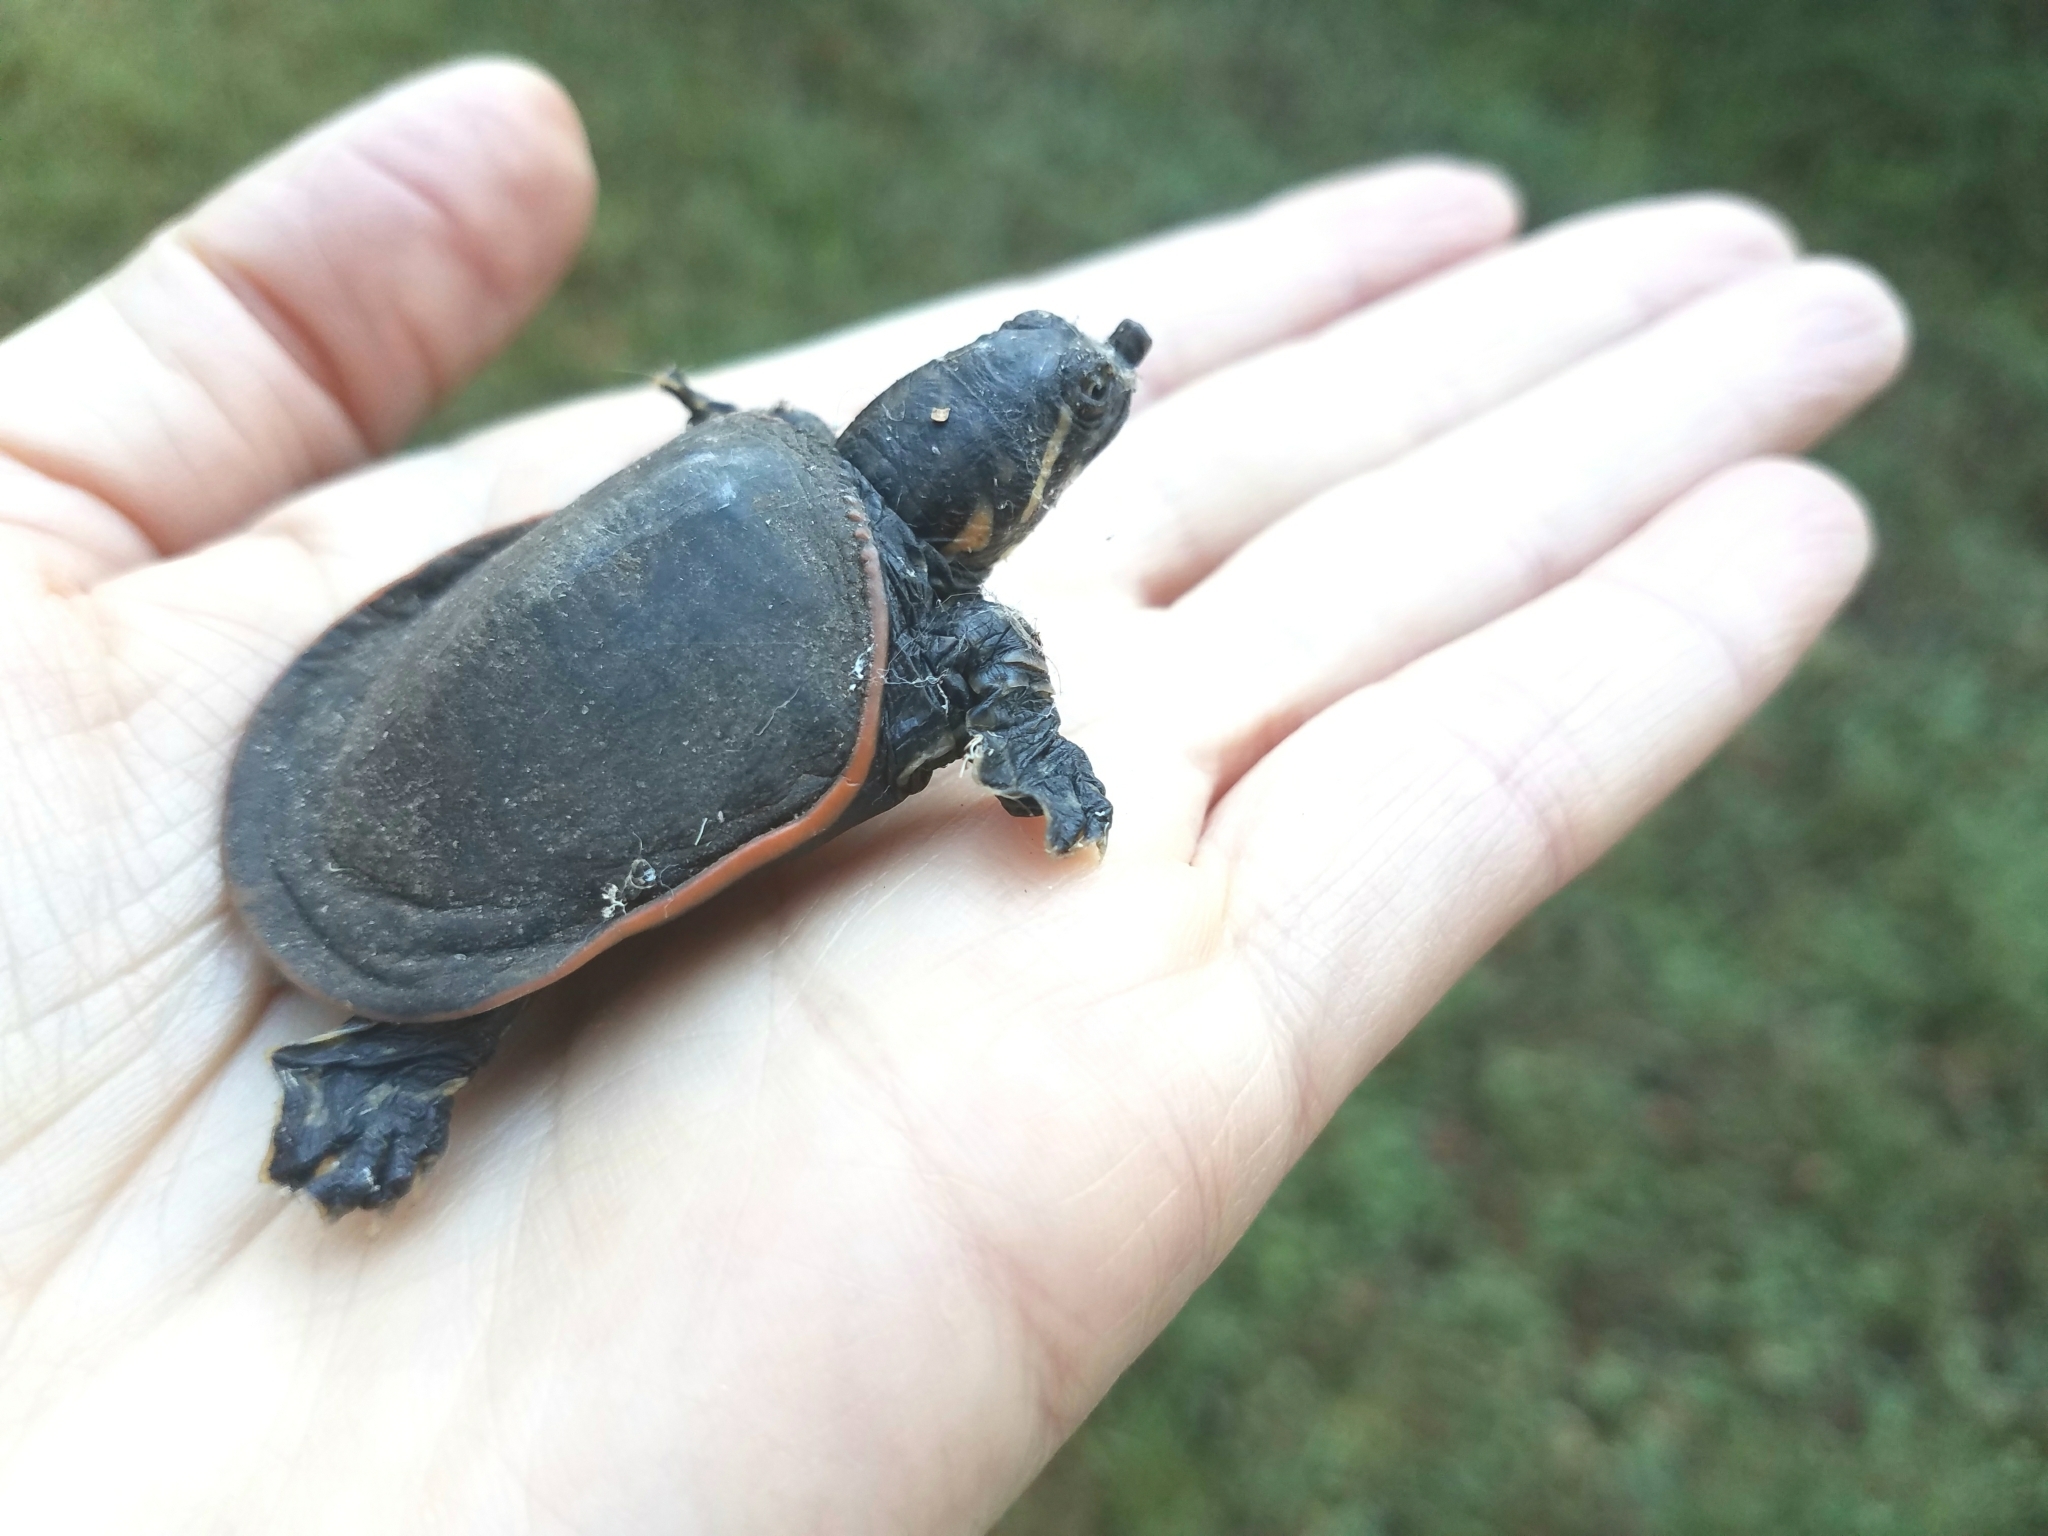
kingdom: Animalia
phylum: Chordata
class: Testudines
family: Trionychidae
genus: Apalone
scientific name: Apalone ferox
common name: Florida softshell turtle
